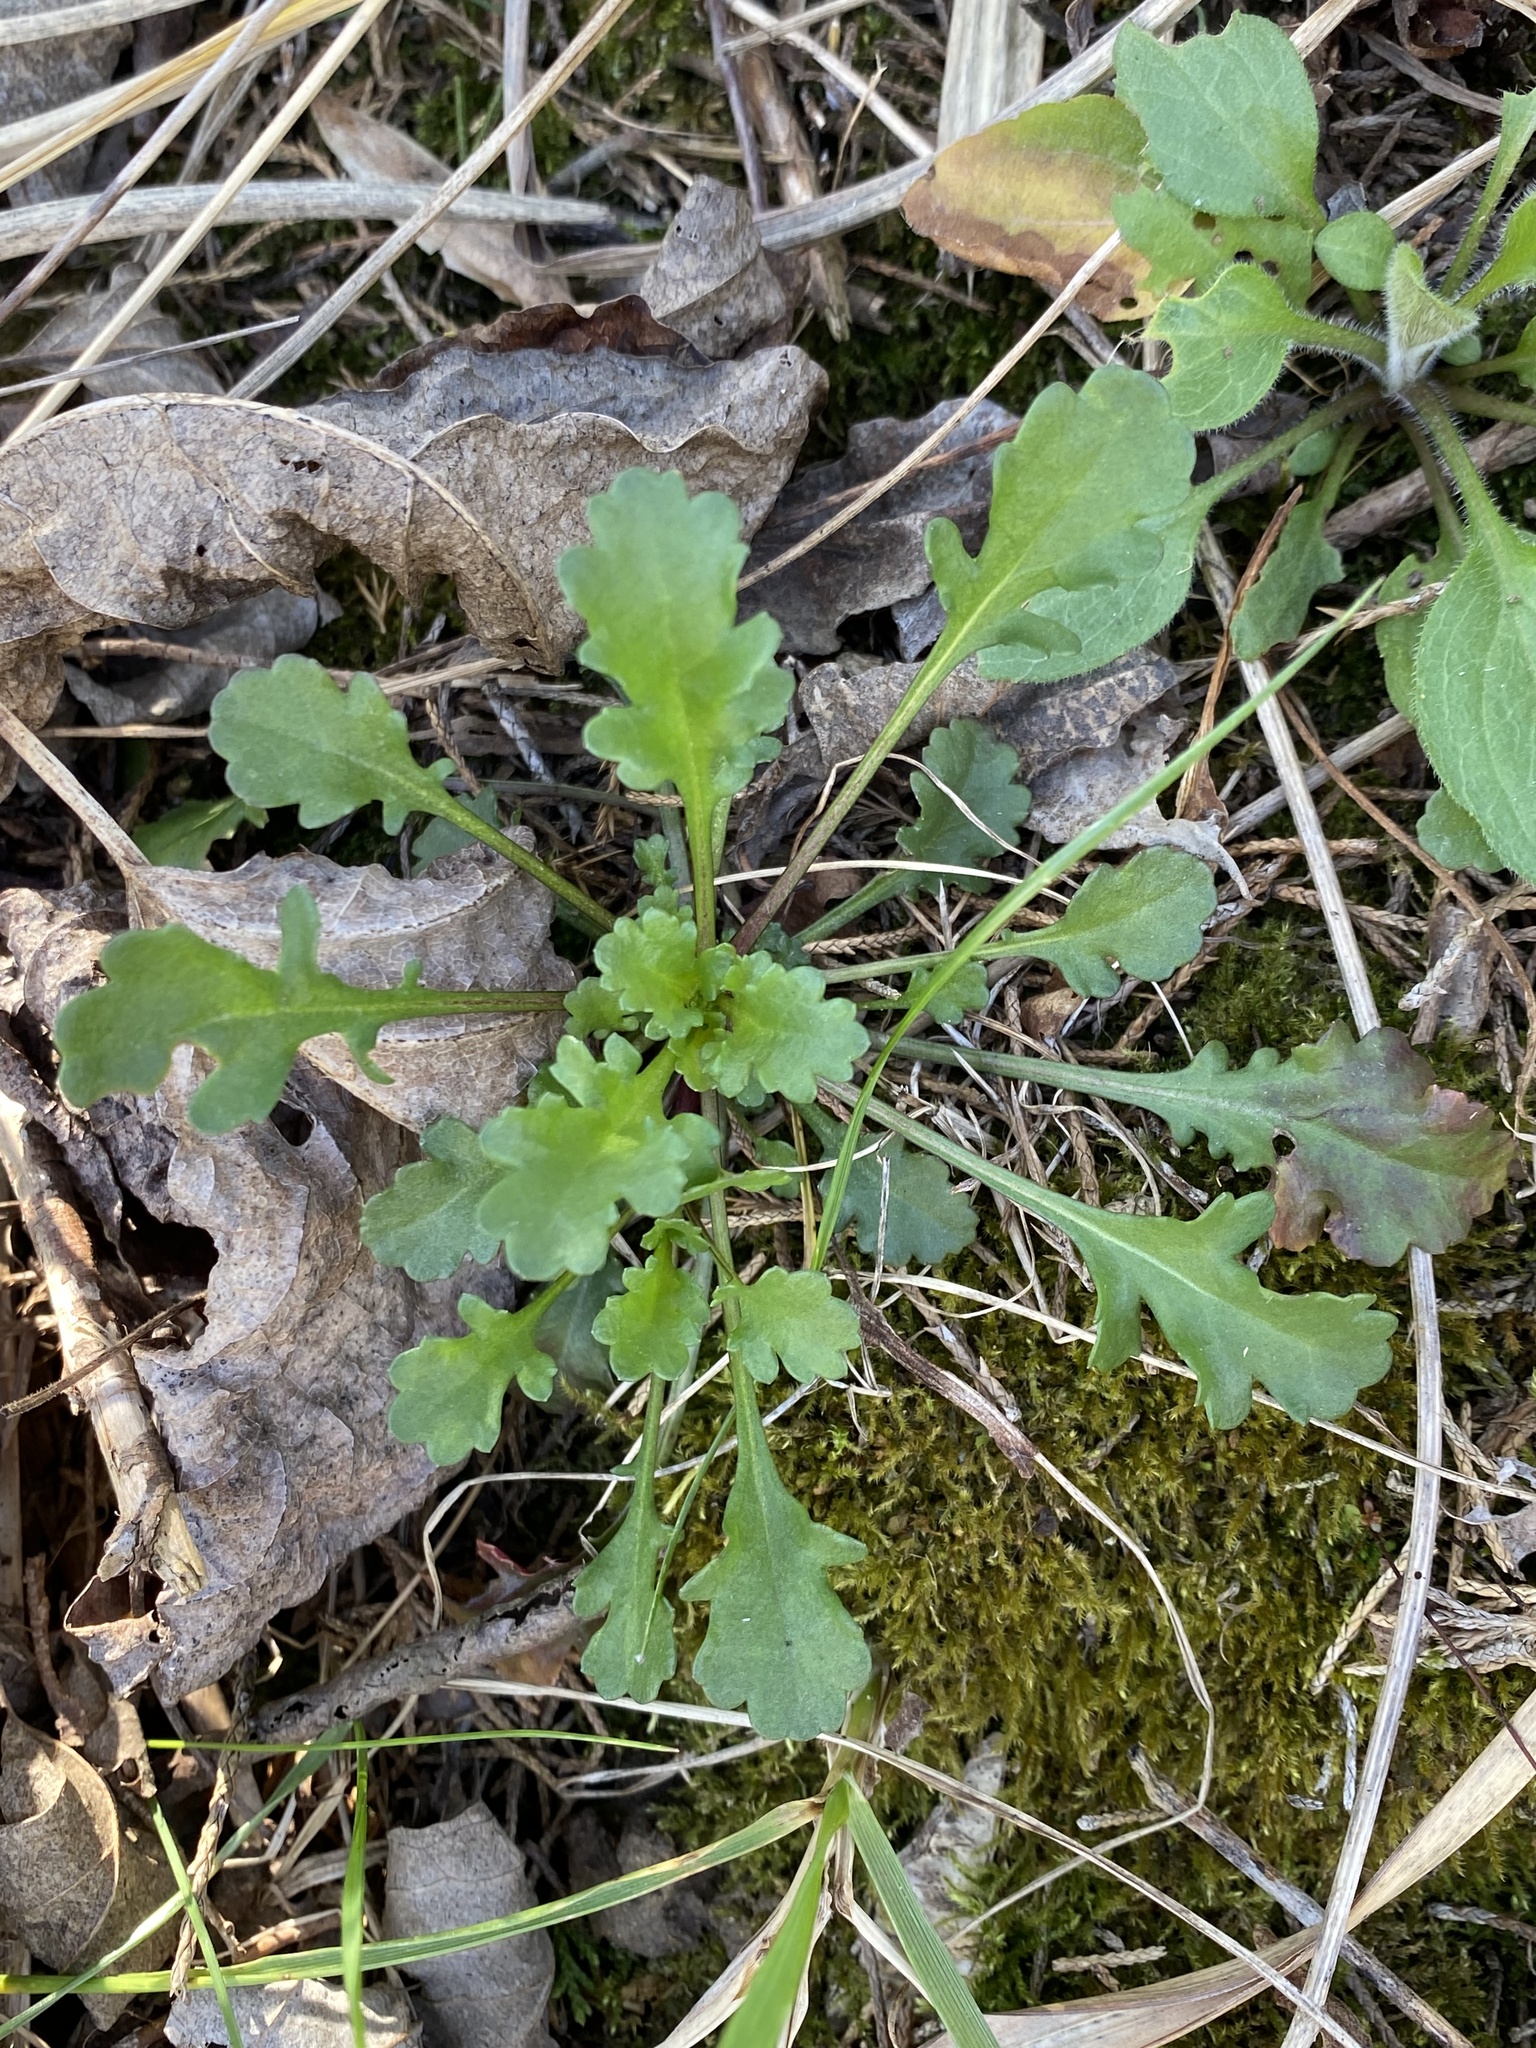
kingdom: Plantae
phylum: Tracheophyta
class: Magnoliopsida
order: Asterales
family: Asteraceae
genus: Leucanthemum
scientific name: Leucanthemum vulgare
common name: Oxeye daisy
